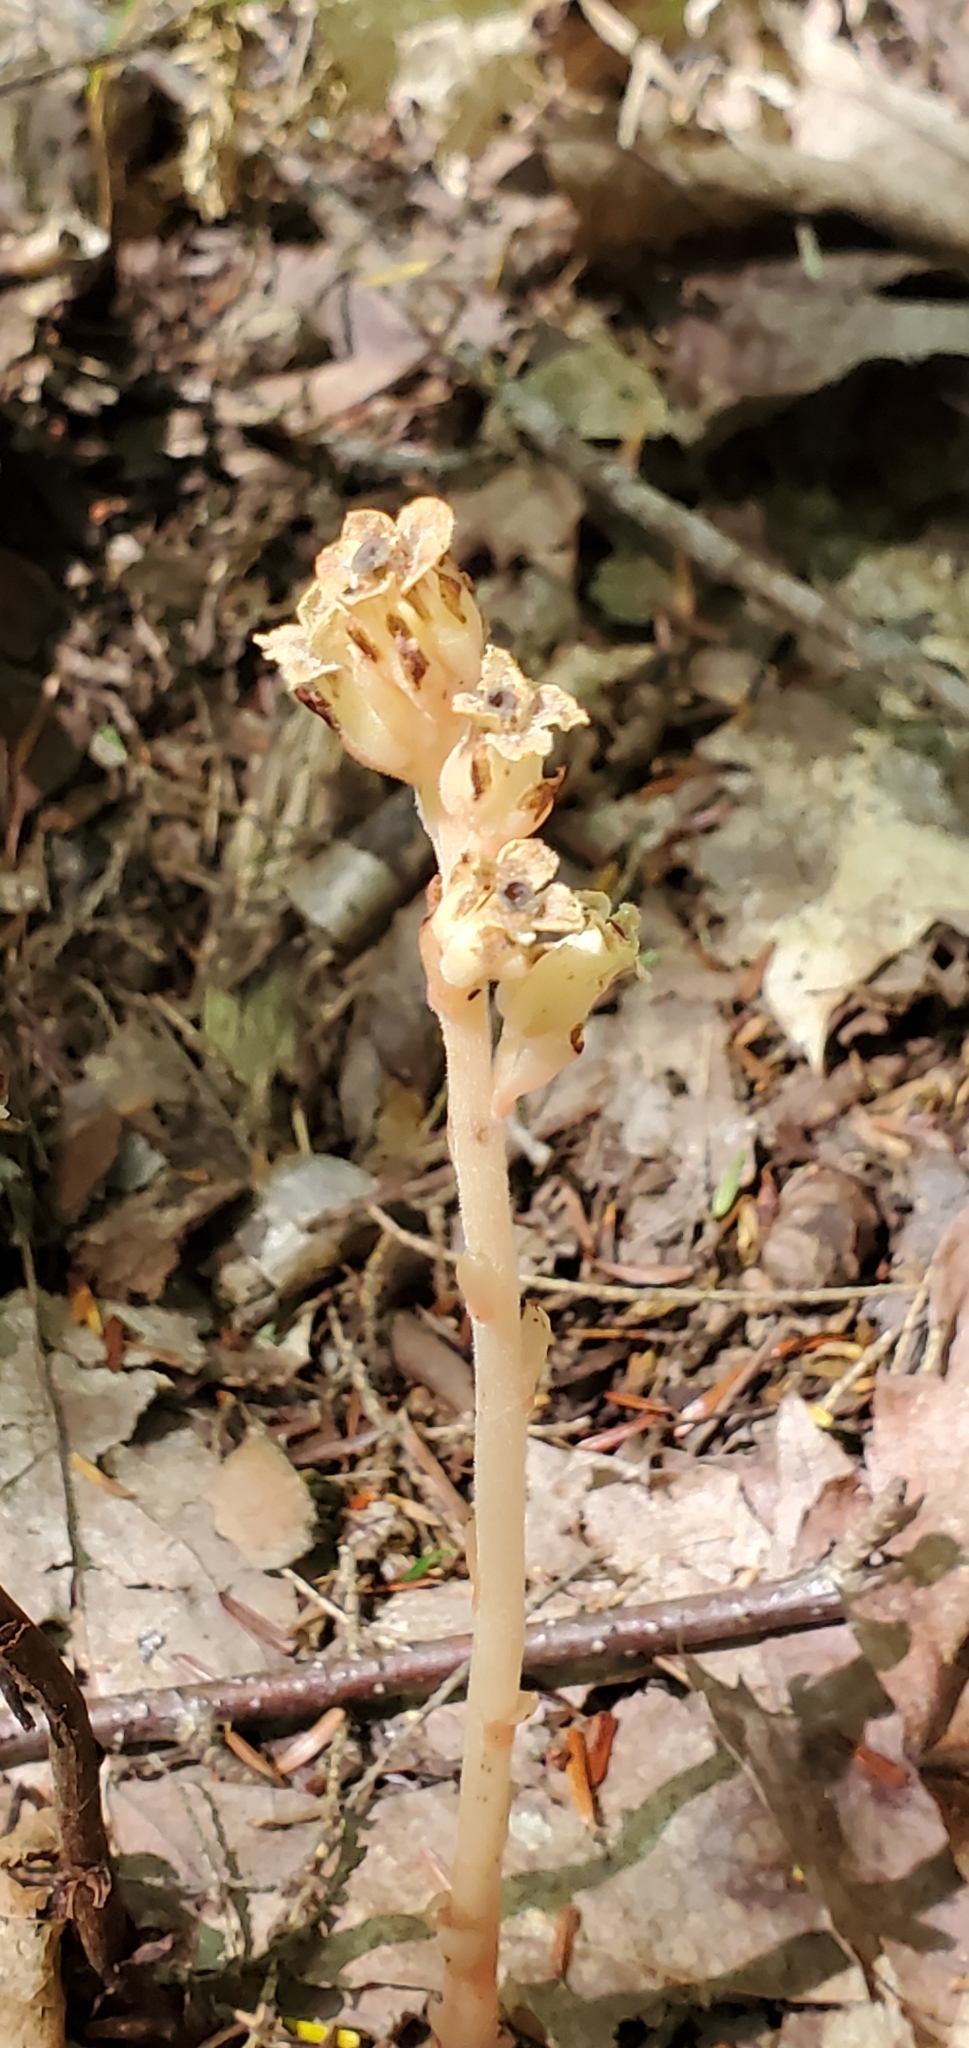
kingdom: Plantae
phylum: Tracheophyta
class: Magnoliopsida
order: Ericales
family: Ericaceae
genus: Hypopitys
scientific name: Hypopitys monotropa
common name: Yellow bird's-nest
